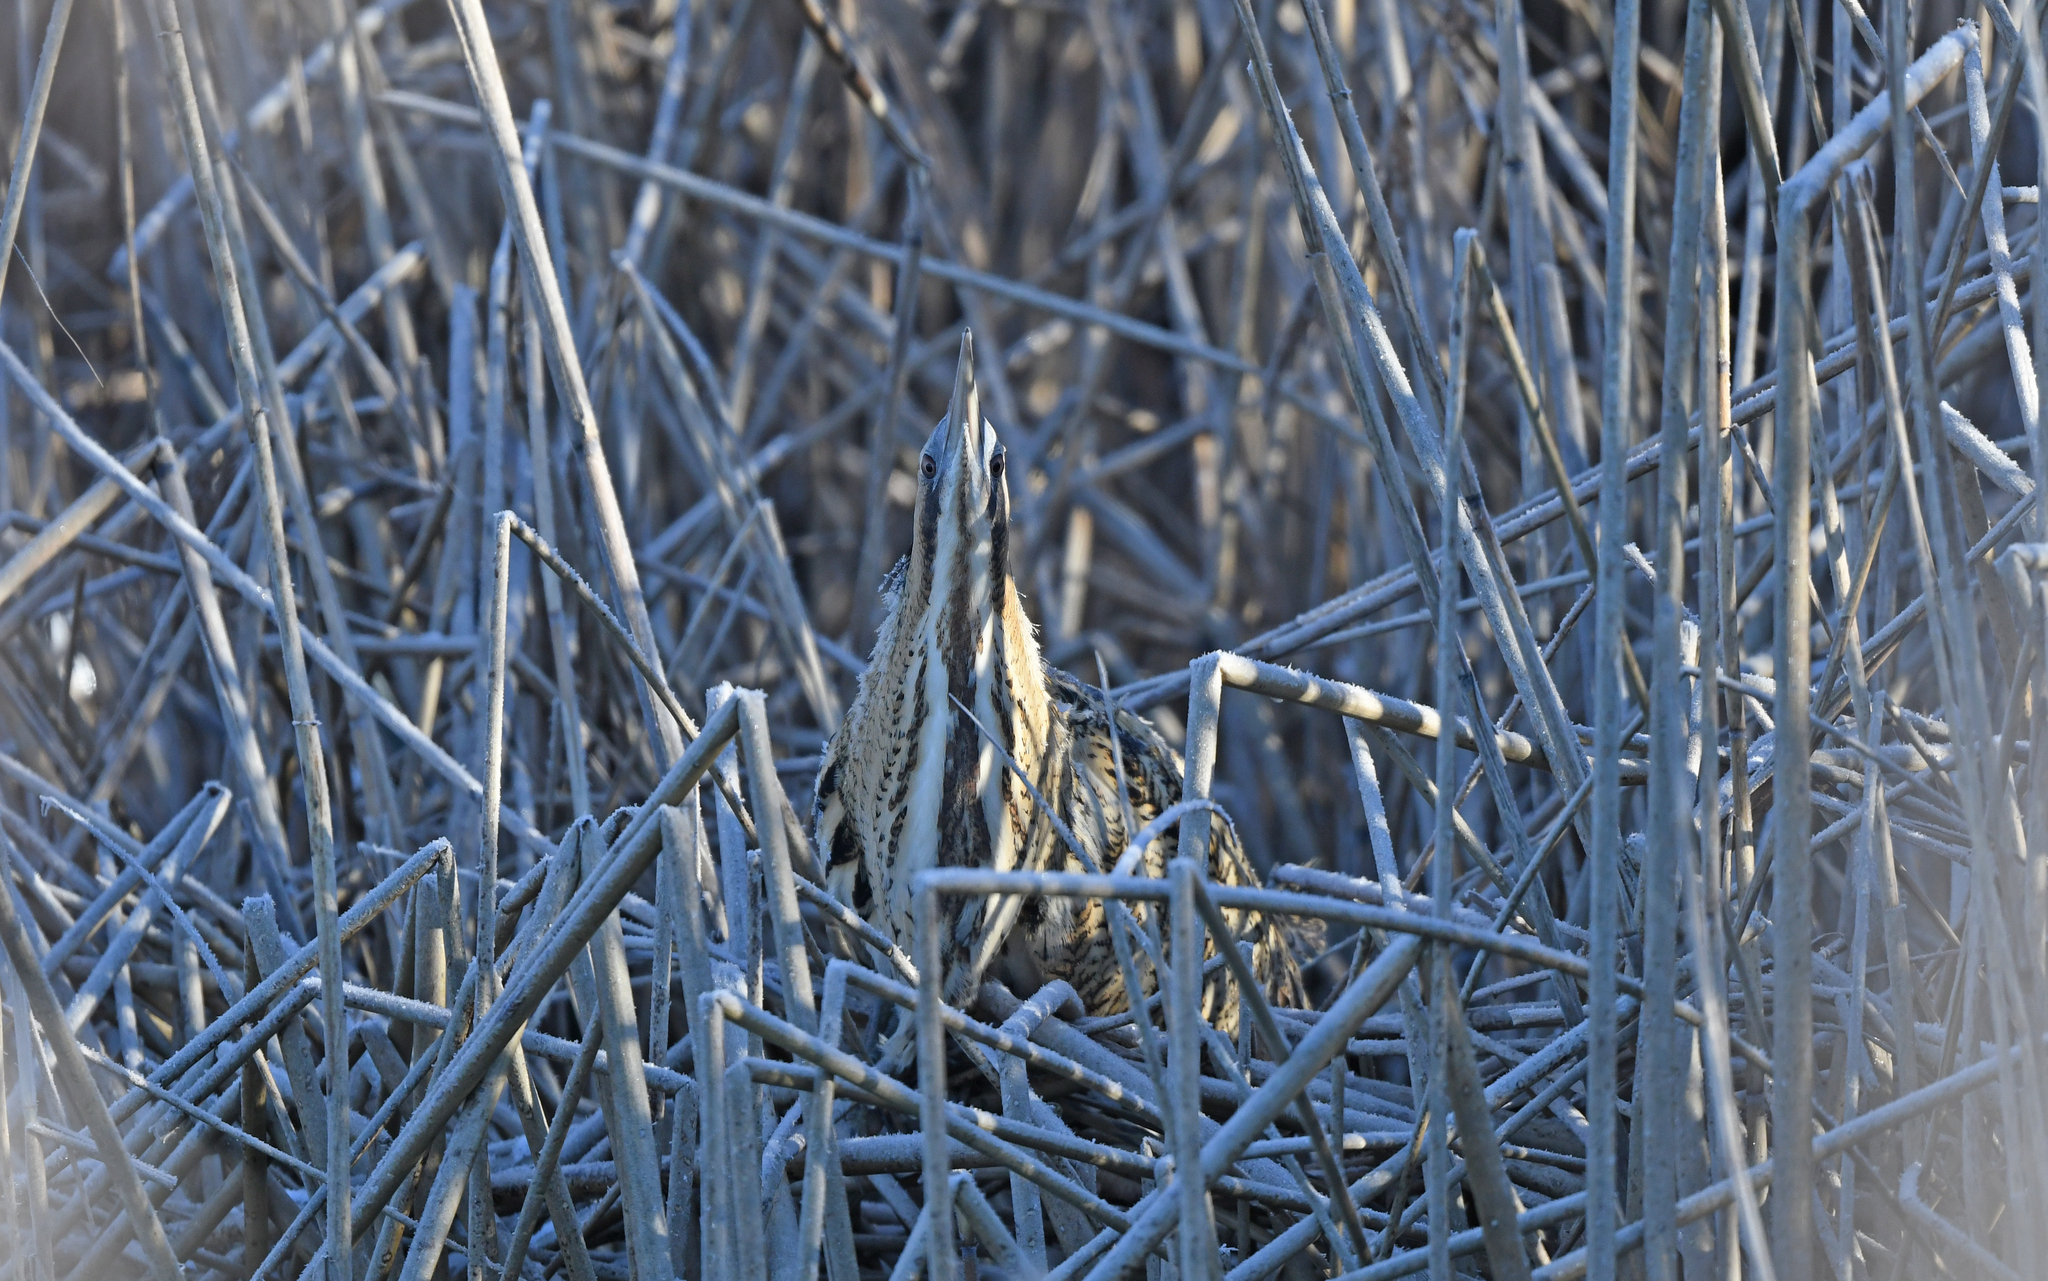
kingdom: Animalia
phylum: Chordata
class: Aves
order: Pelecaniformes
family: Ardeidae
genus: Botaurus
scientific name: Botaurus stellaris
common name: Eurasian bittern
